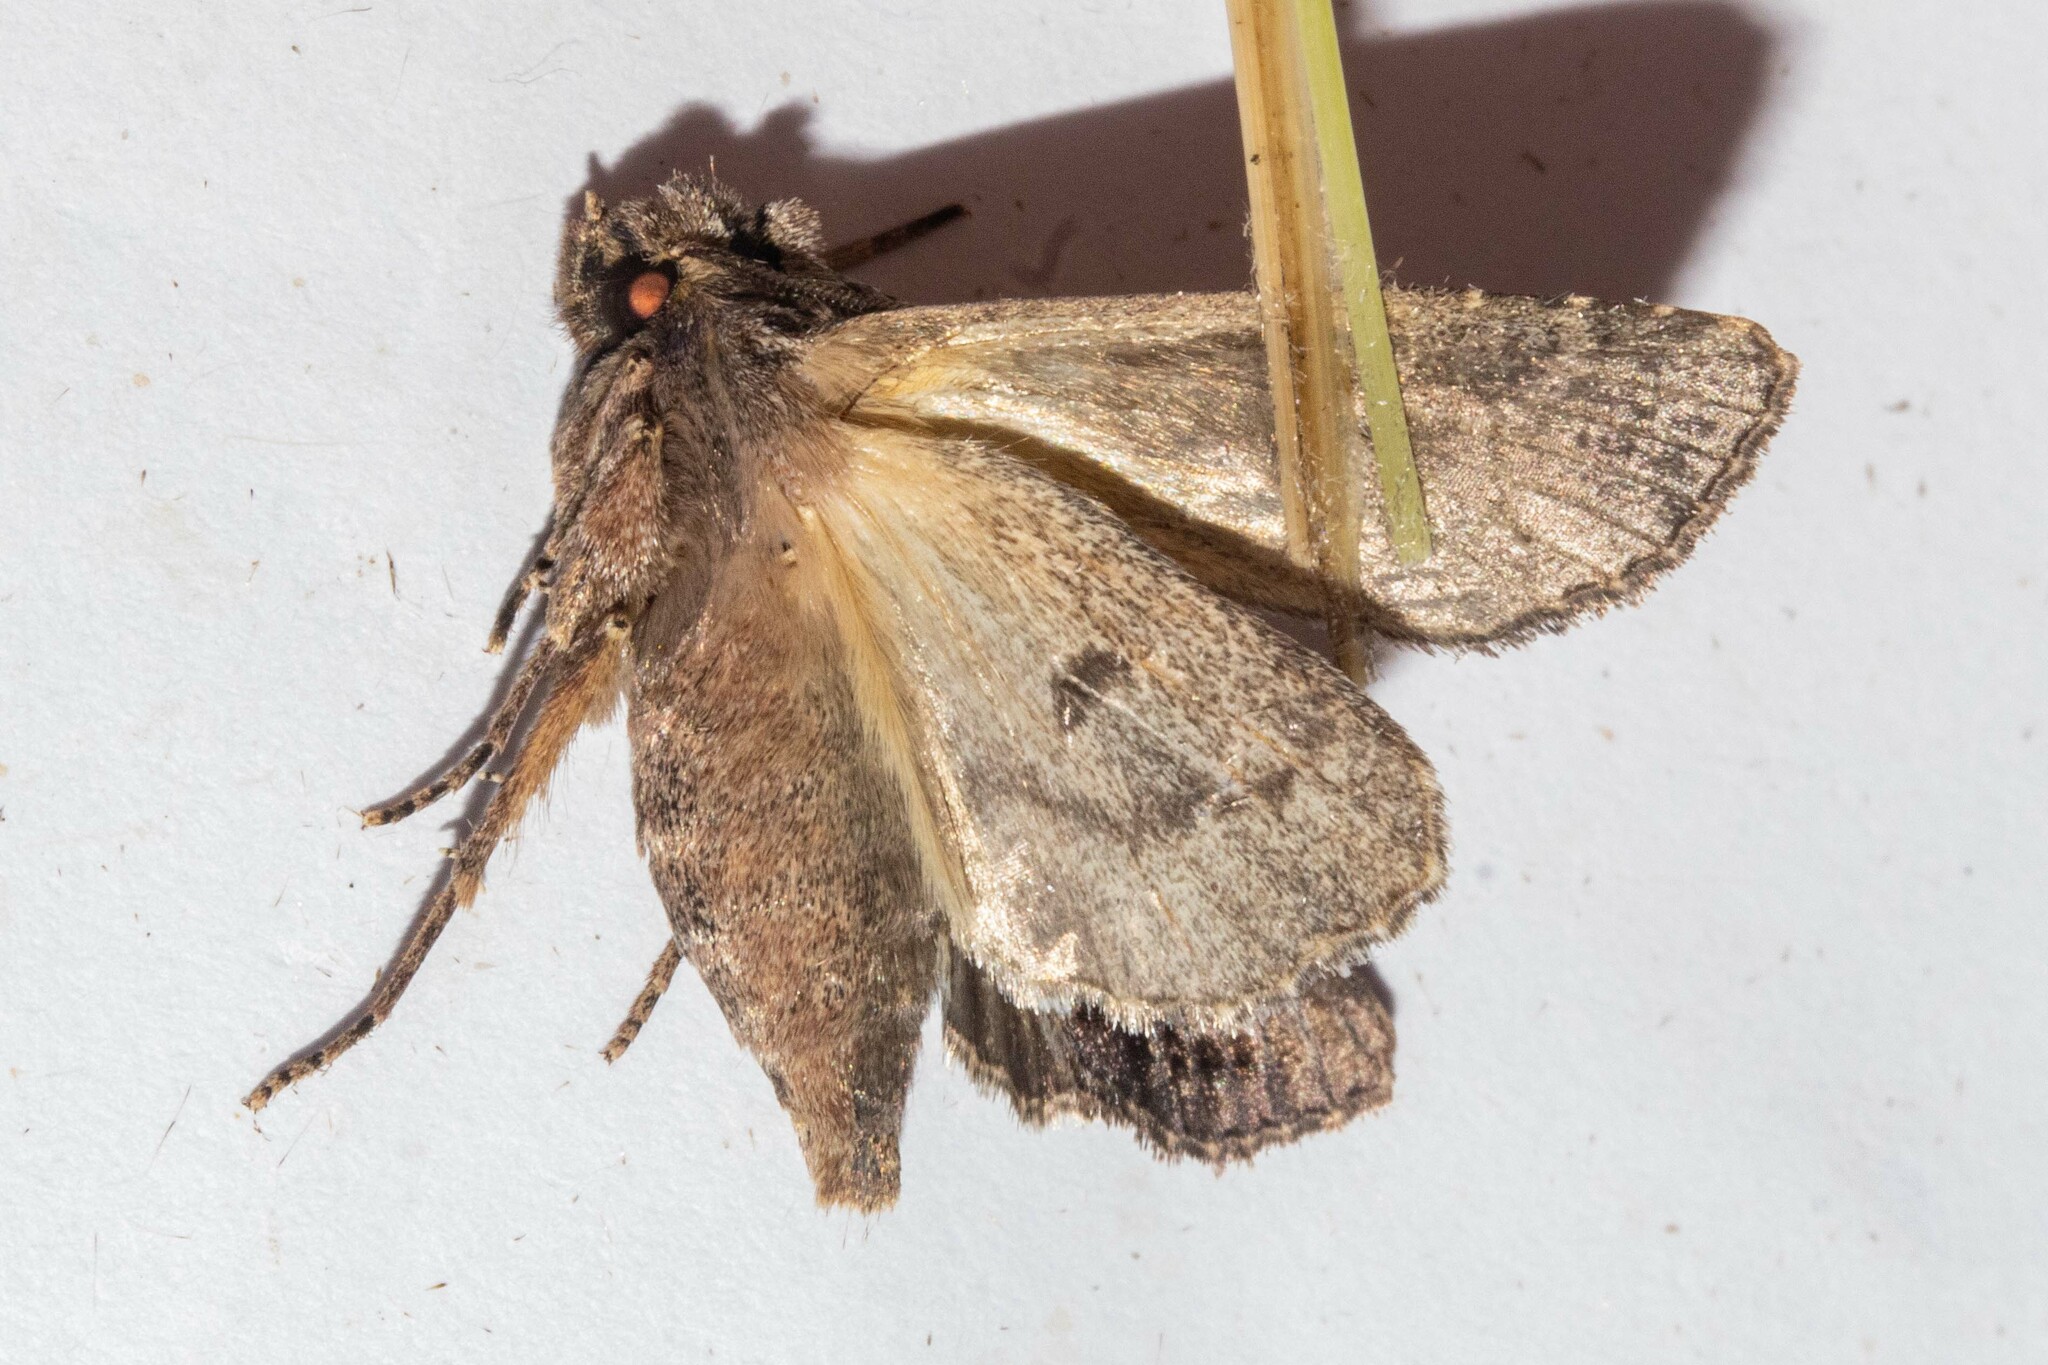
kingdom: Animalia
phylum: Arthropoda
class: Insecta
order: Lepidoptera
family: Noctuidae
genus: Ichneutica
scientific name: Ichneutica mutans
